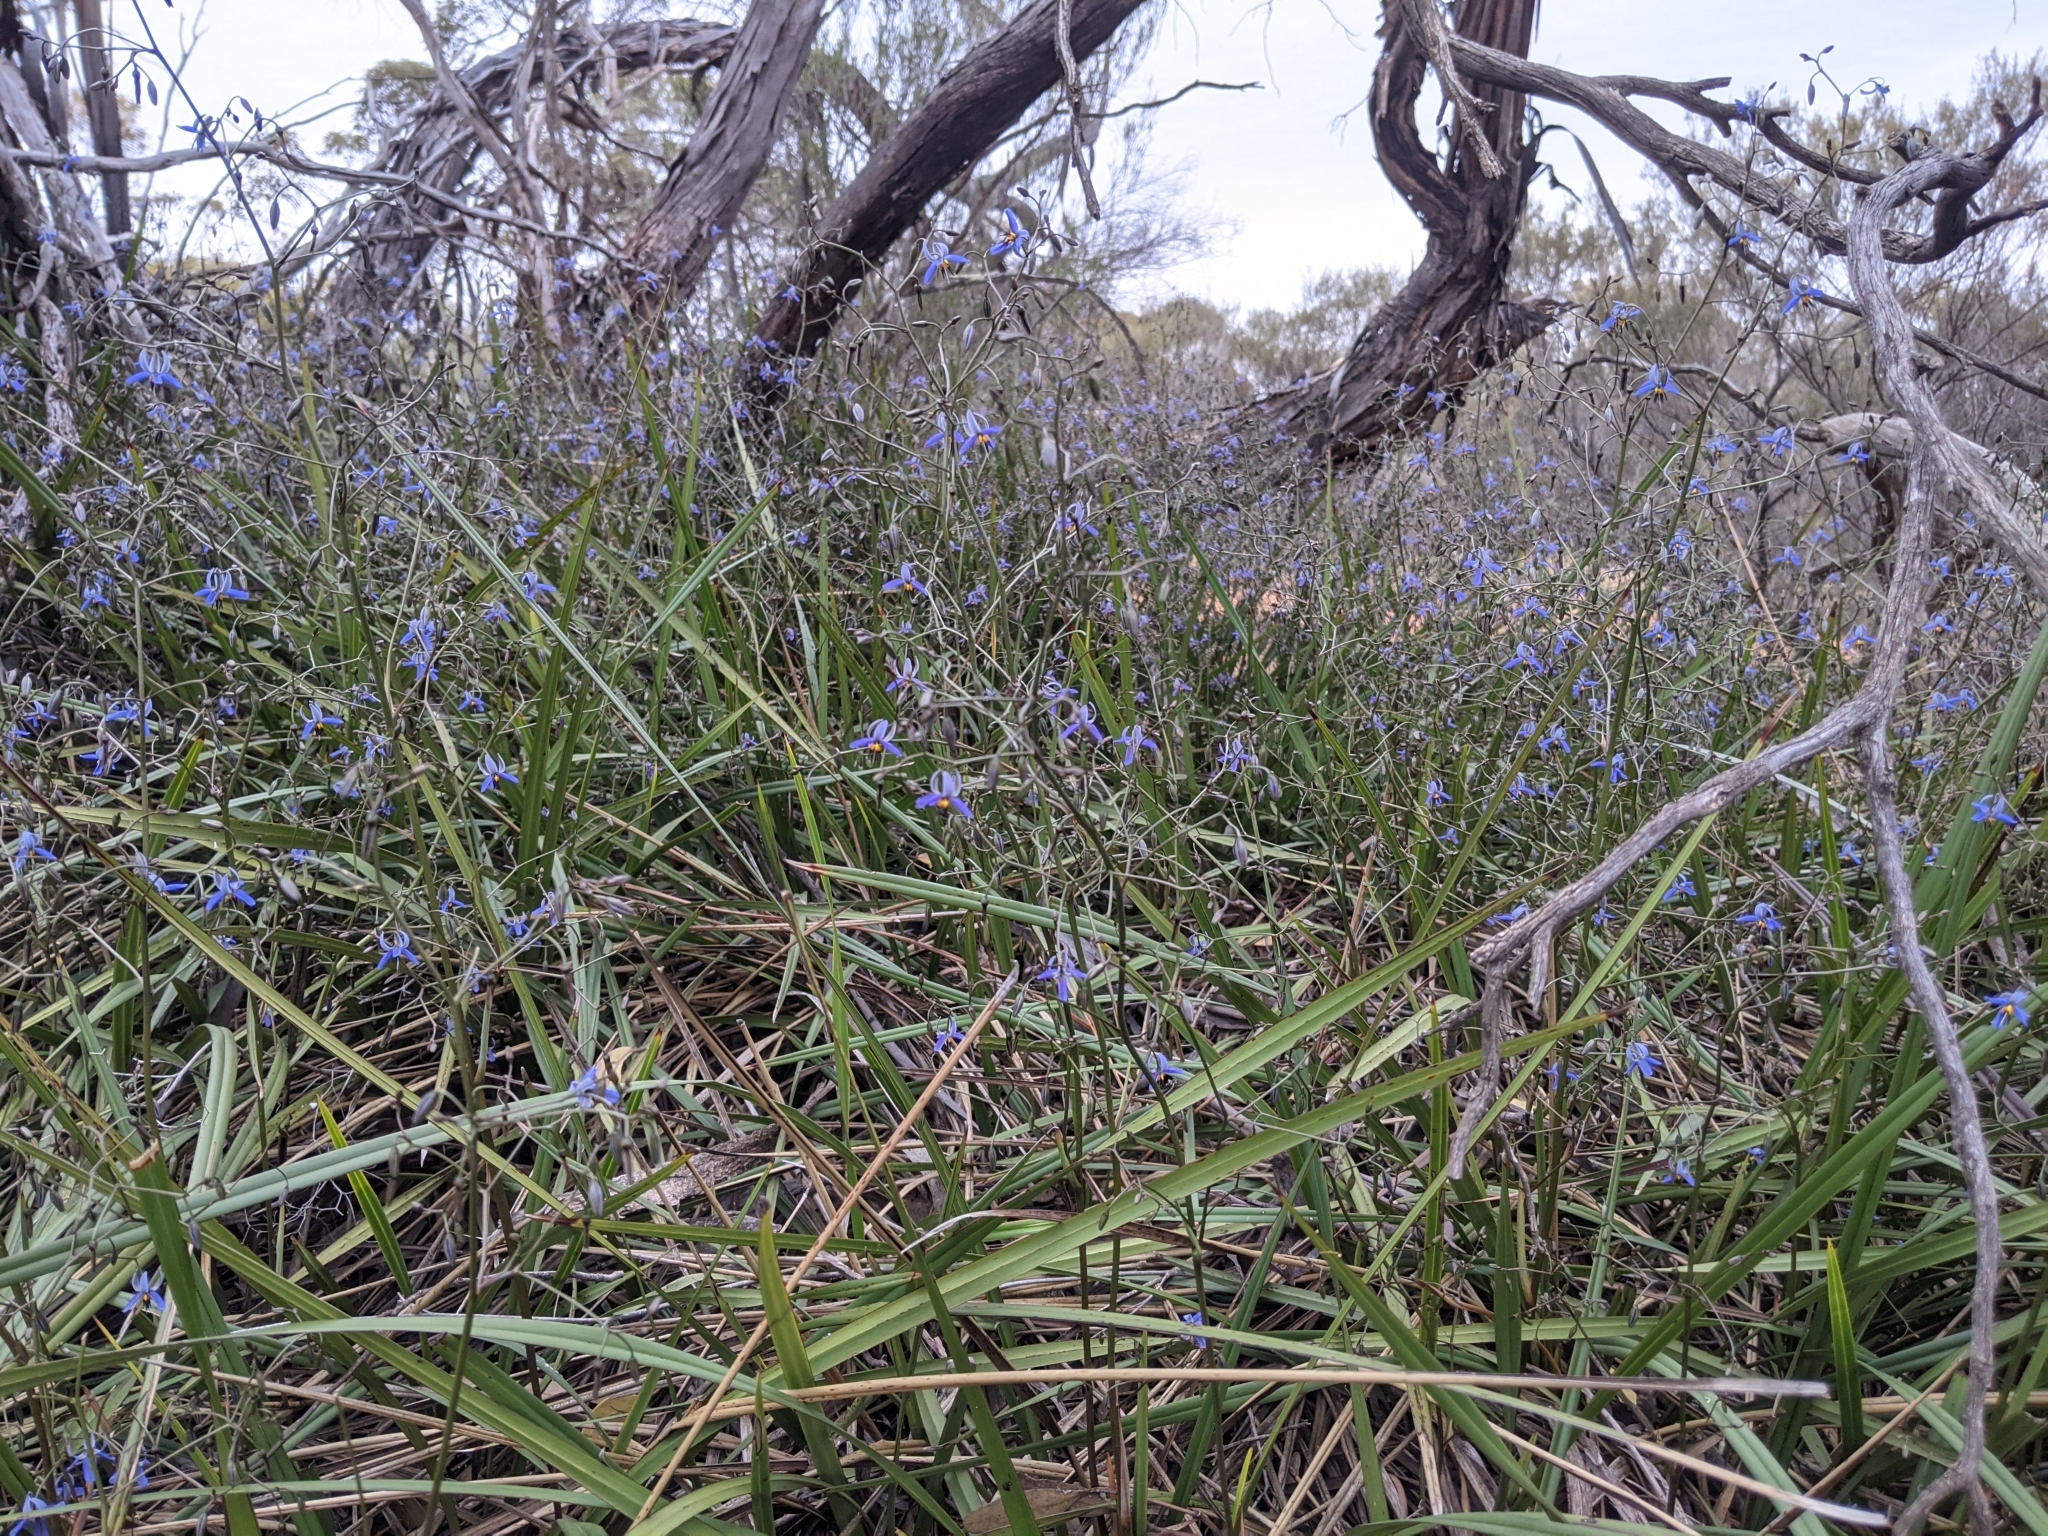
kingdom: Plantae
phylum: Tracheophyta
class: Liliopsida
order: Asparagales
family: Asphodelaceae
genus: Dianella
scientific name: Dianella revoluta
